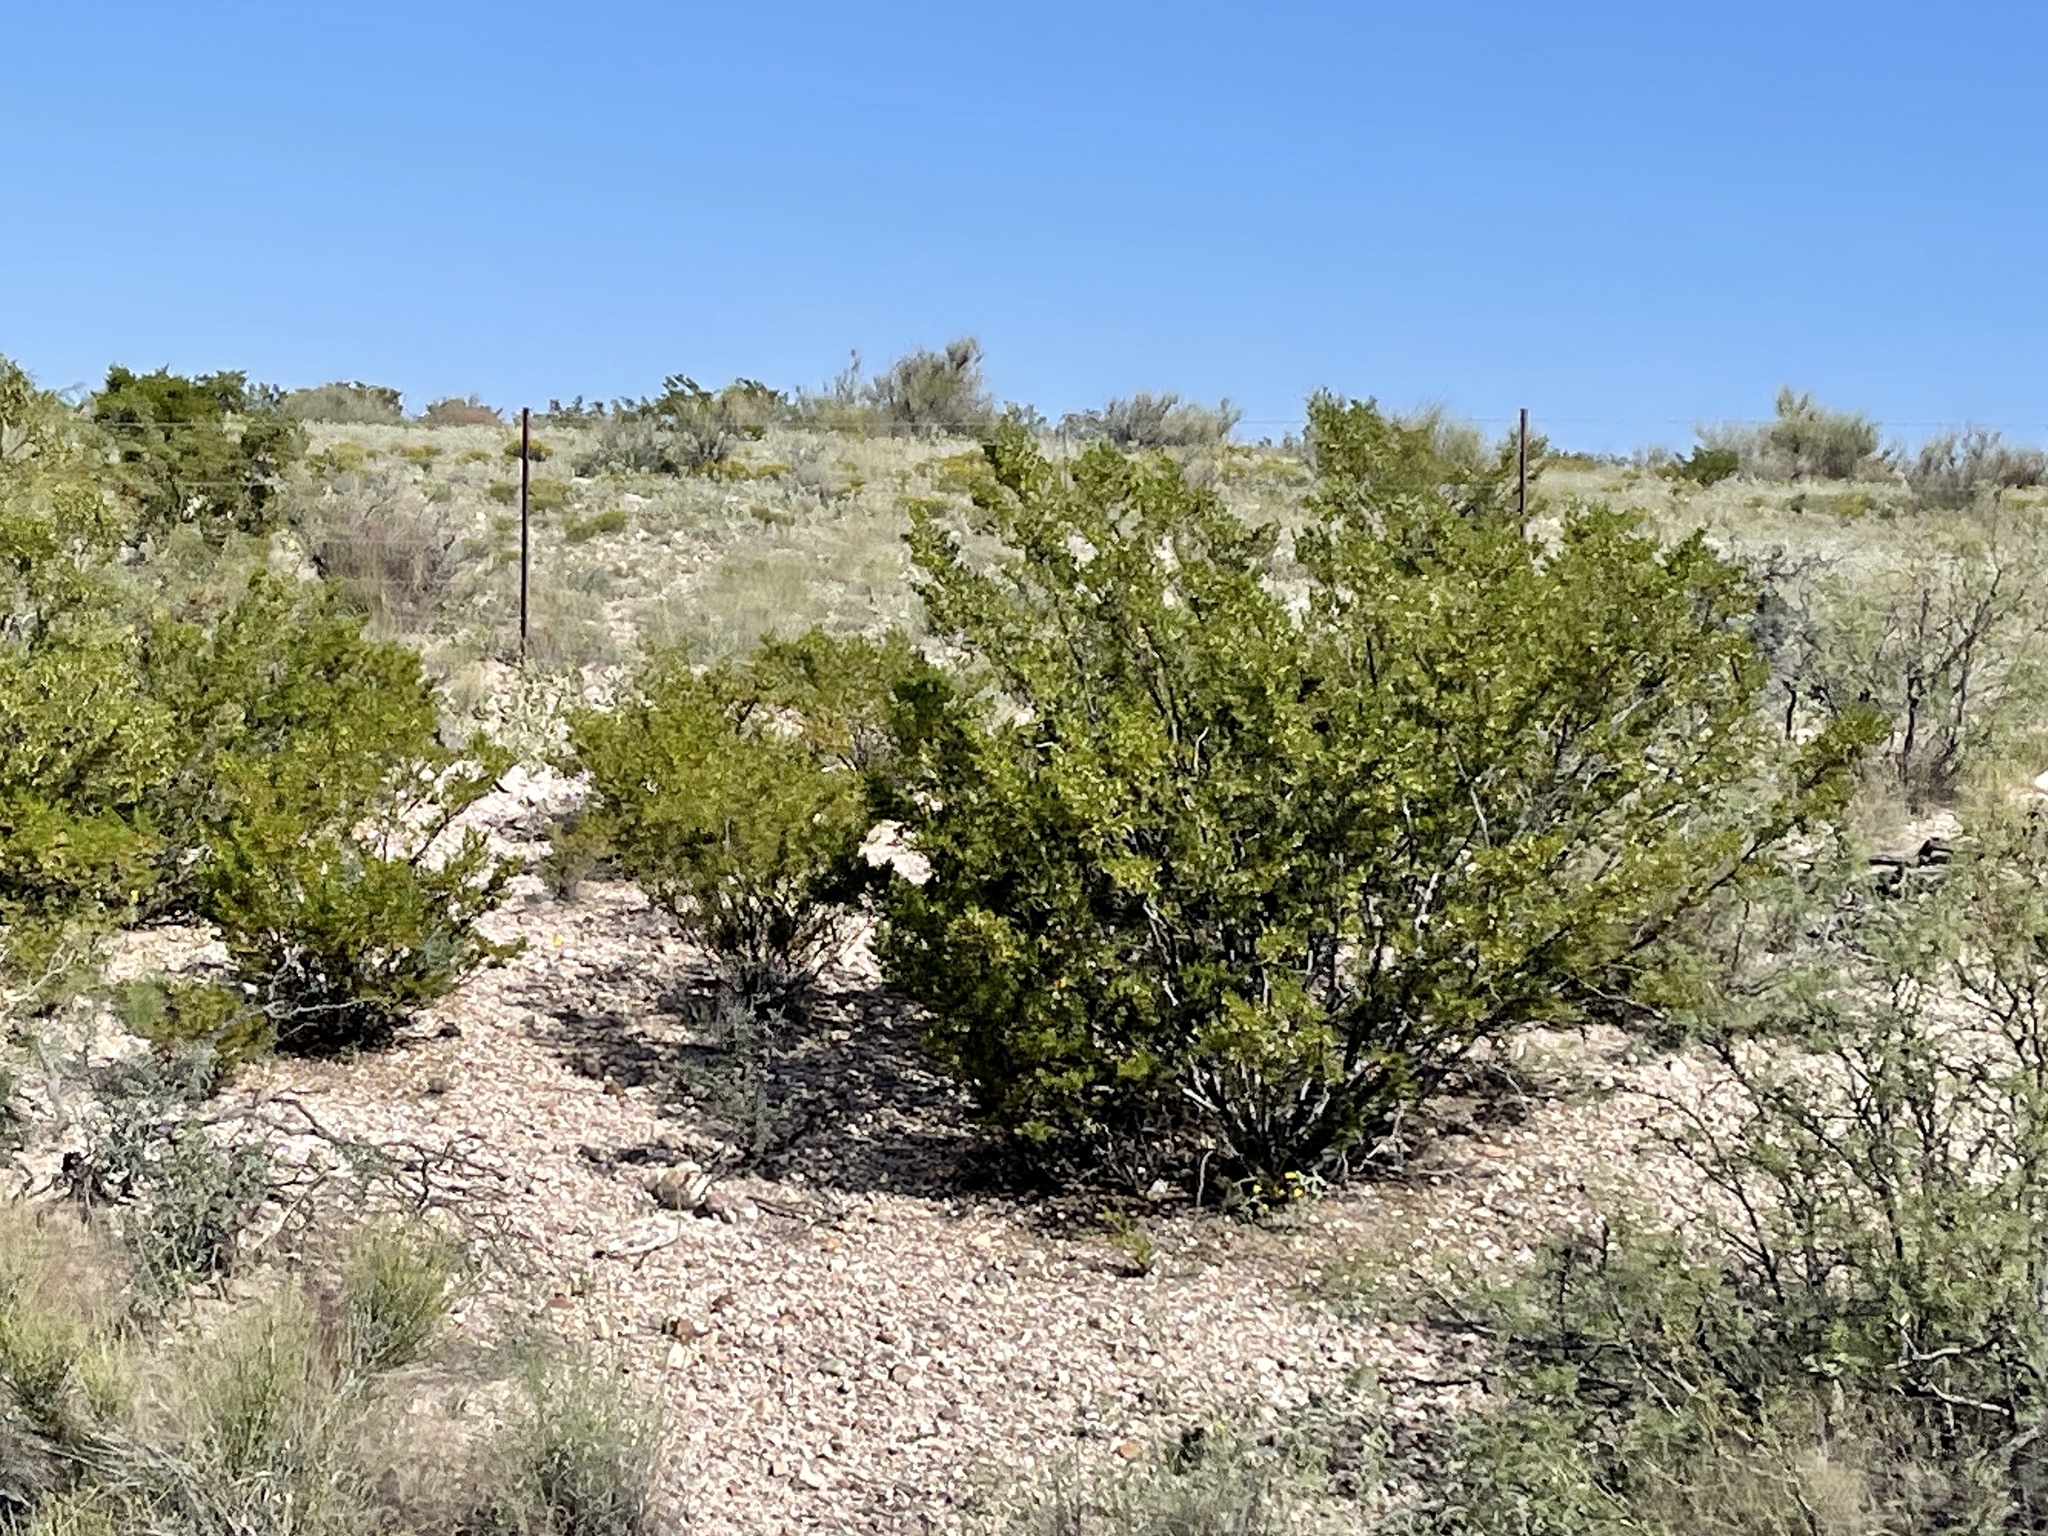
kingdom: Plantae
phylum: Tracheophyta
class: Magnoliopsida
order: Zygophyllales
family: Zygophyllaceae
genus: Larrea
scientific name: Larrea tridentata
